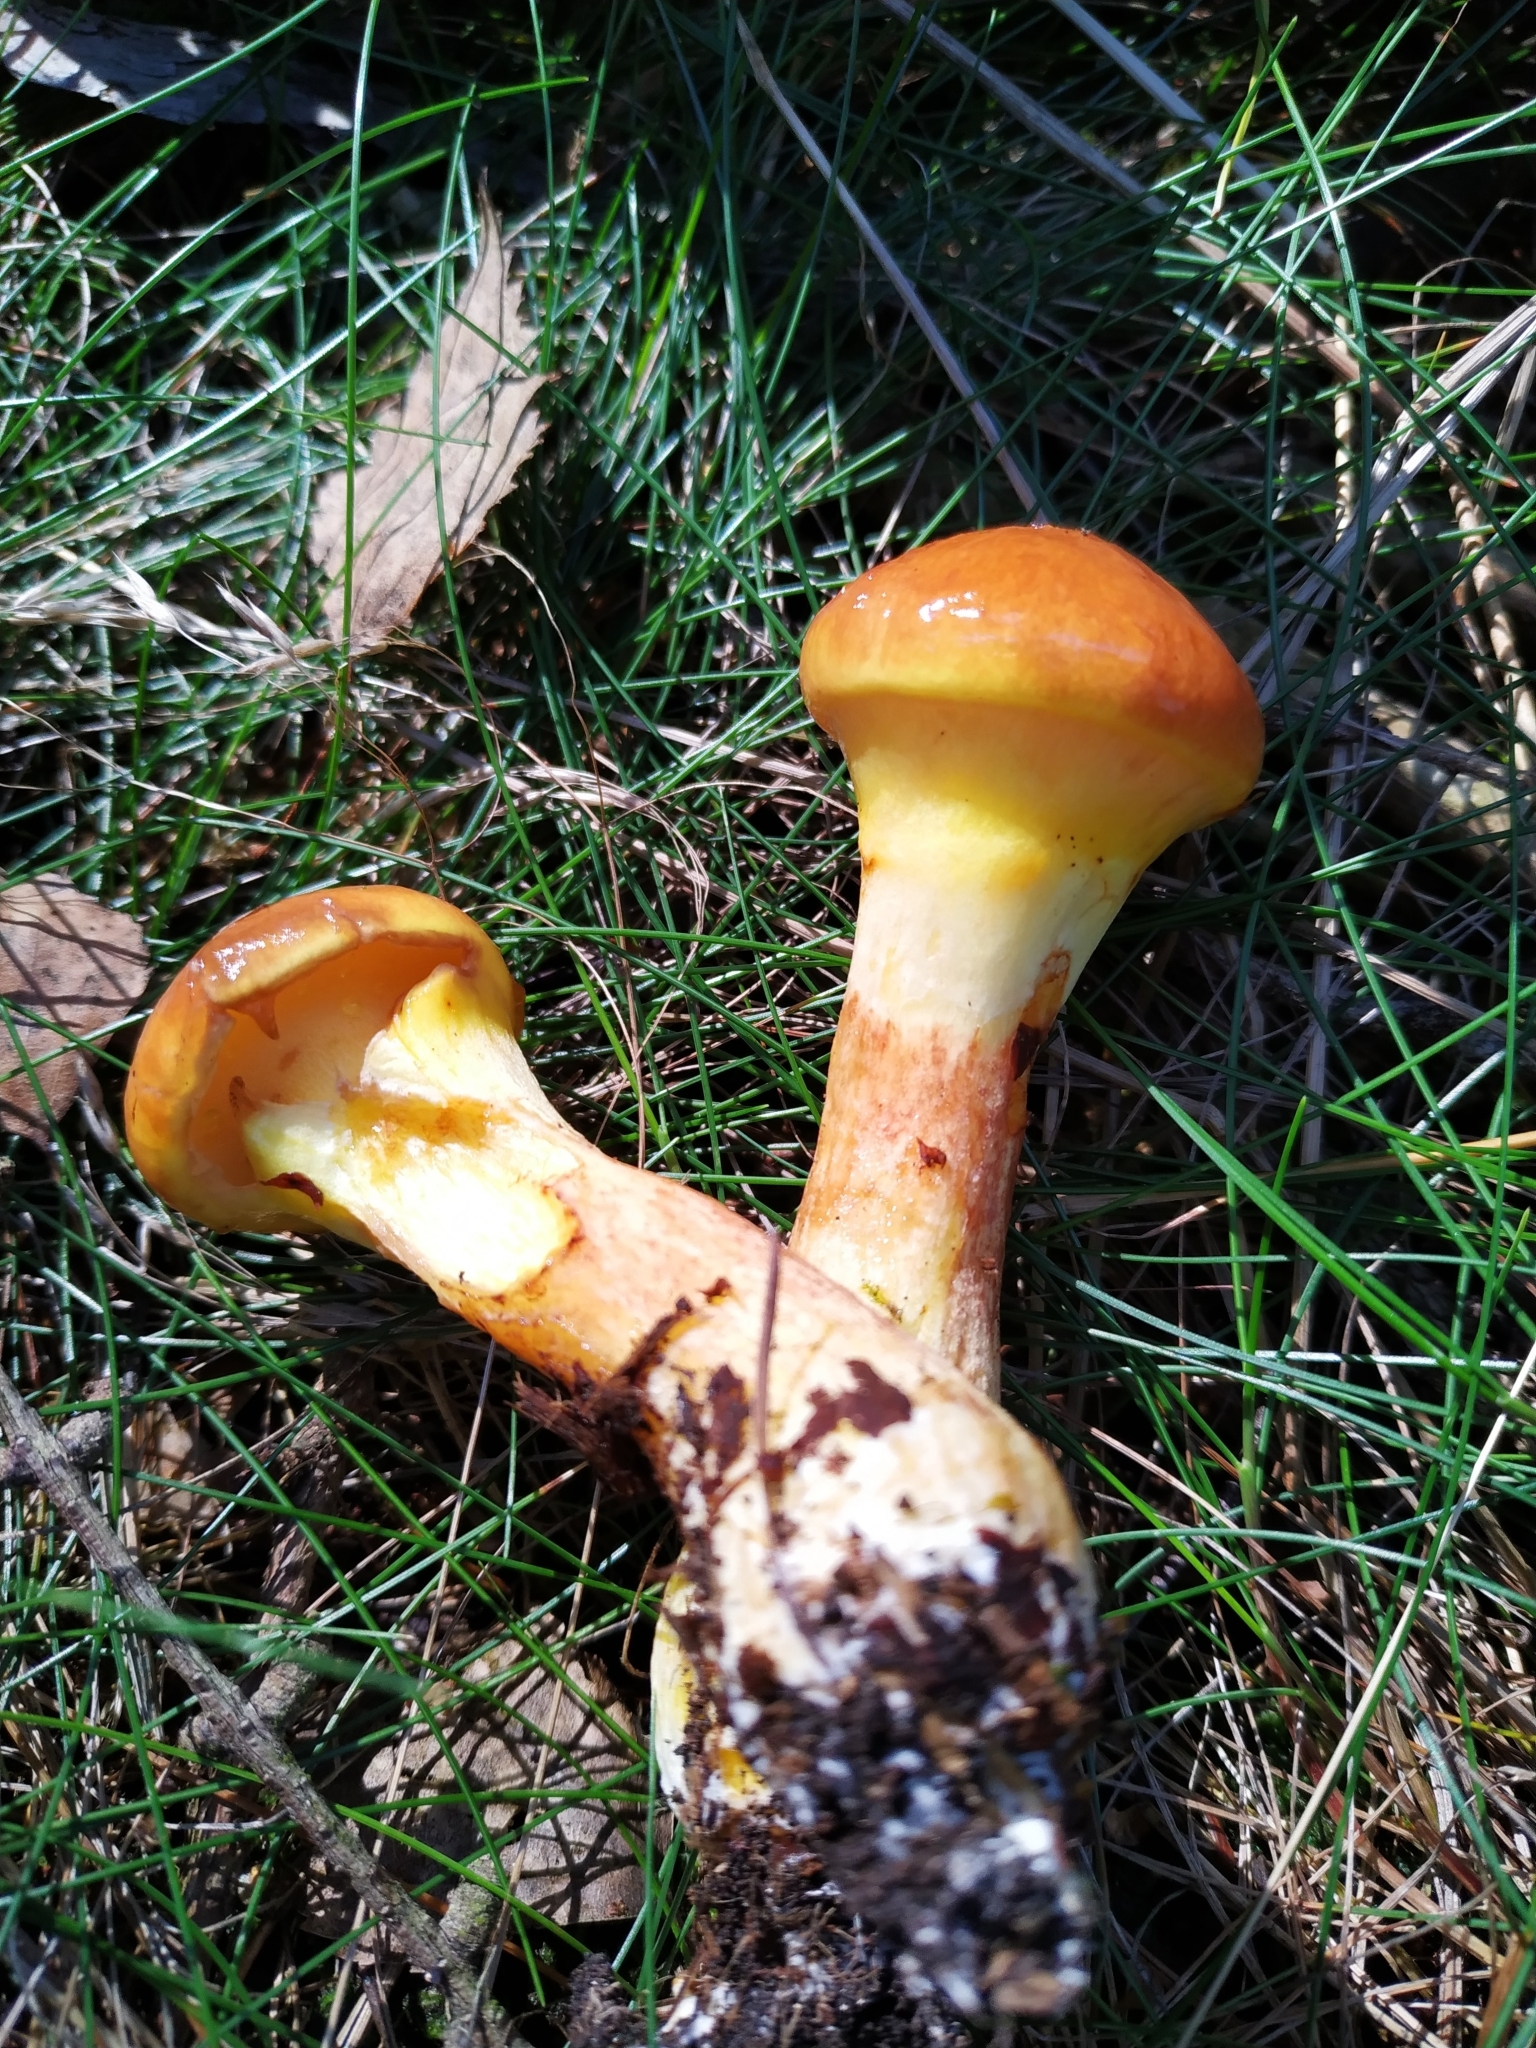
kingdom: Fungi
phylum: Basidiomycota
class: Agaricomycetes
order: Boletales
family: Suillaceae
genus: Suillus
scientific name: Suillus grevillei
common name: Larch bolete
